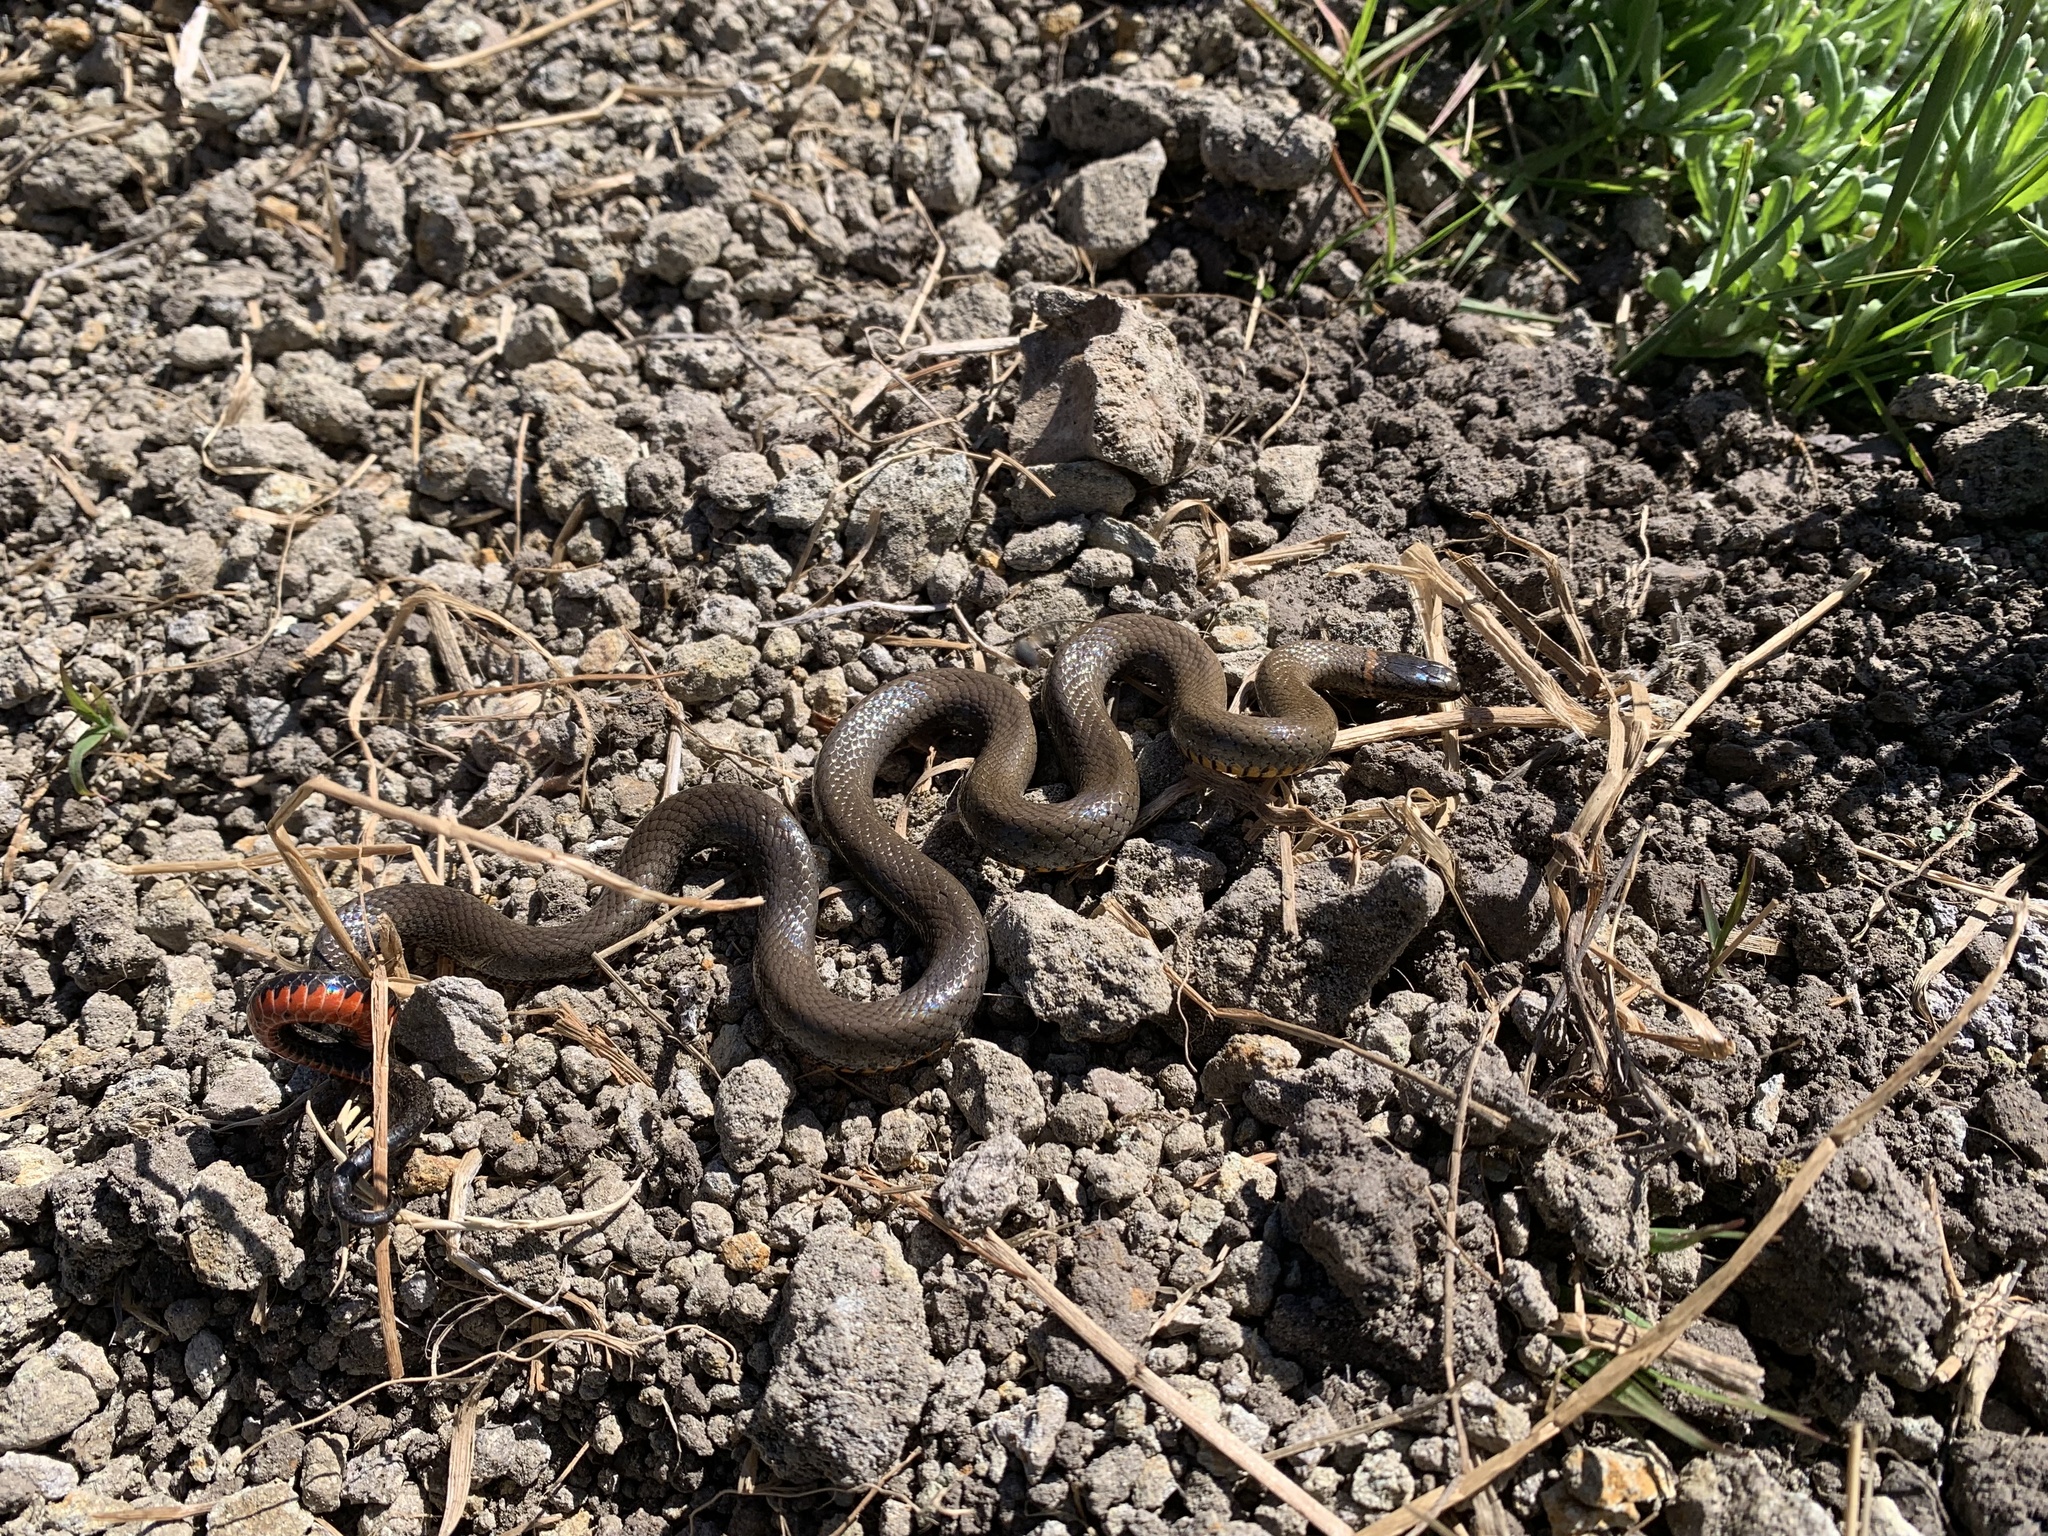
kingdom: Animalia
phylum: Chordata
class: Squamata
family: Colubridae
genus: Diadophis
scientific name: Diadophis punctatus
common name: Ringneck snake
